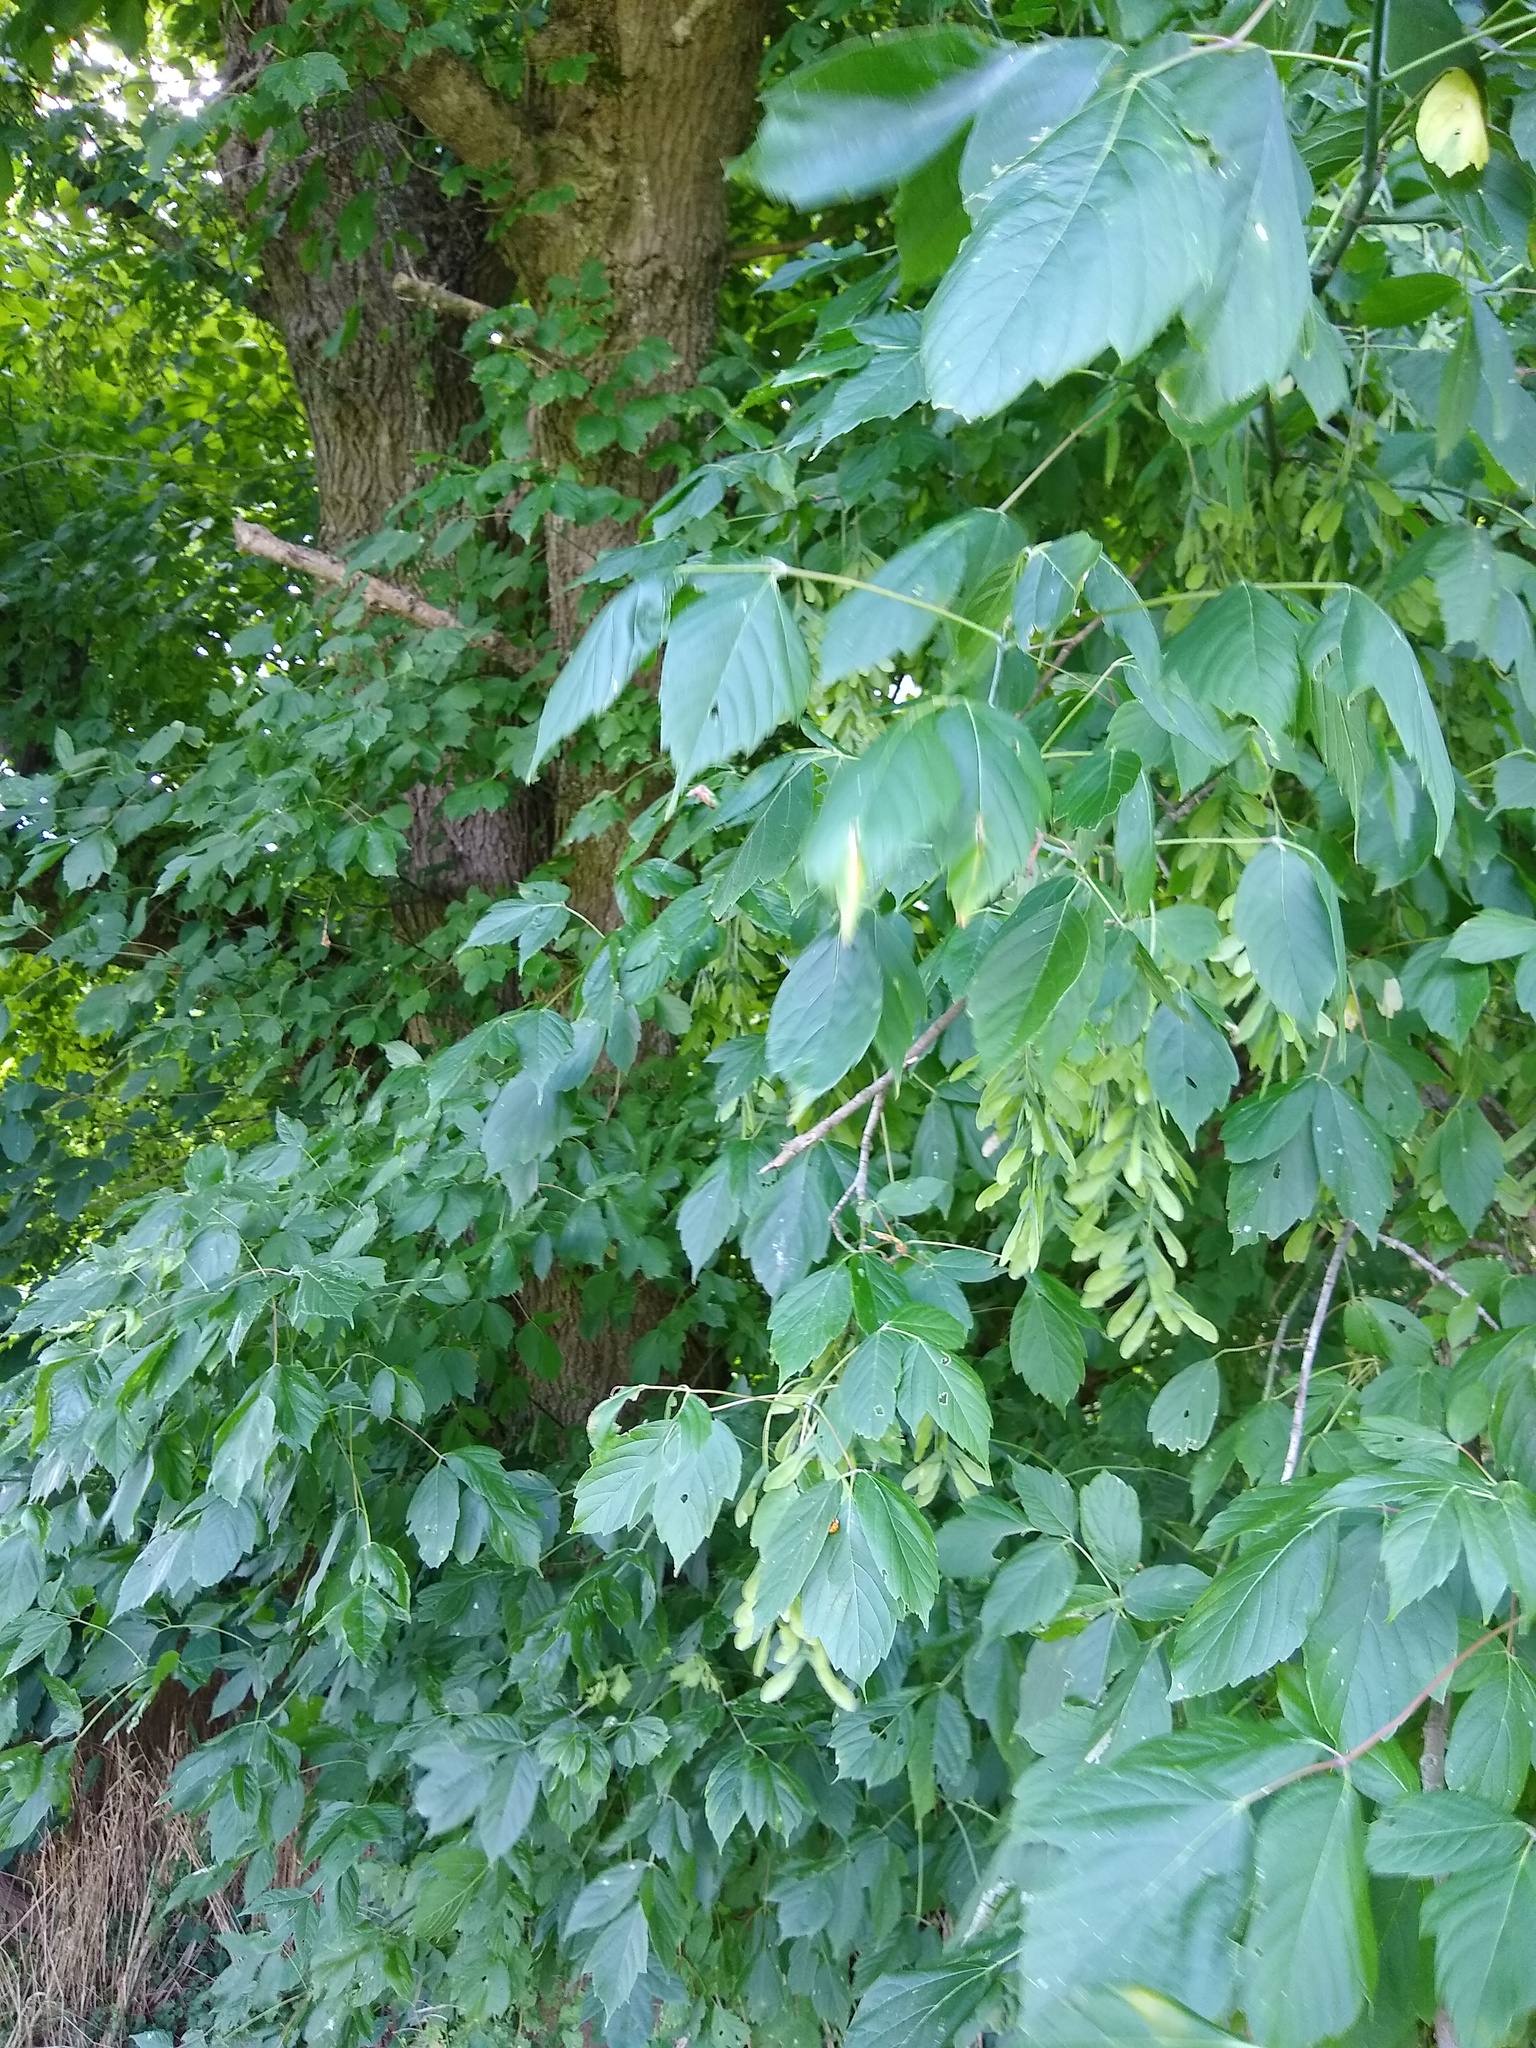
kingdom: Plantae
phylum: Tracheophyta
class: Magnoliopsida
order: Sapindales
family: Sapindaceae
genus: Acer
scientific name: Acer negundo
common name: Ashleaf maple
